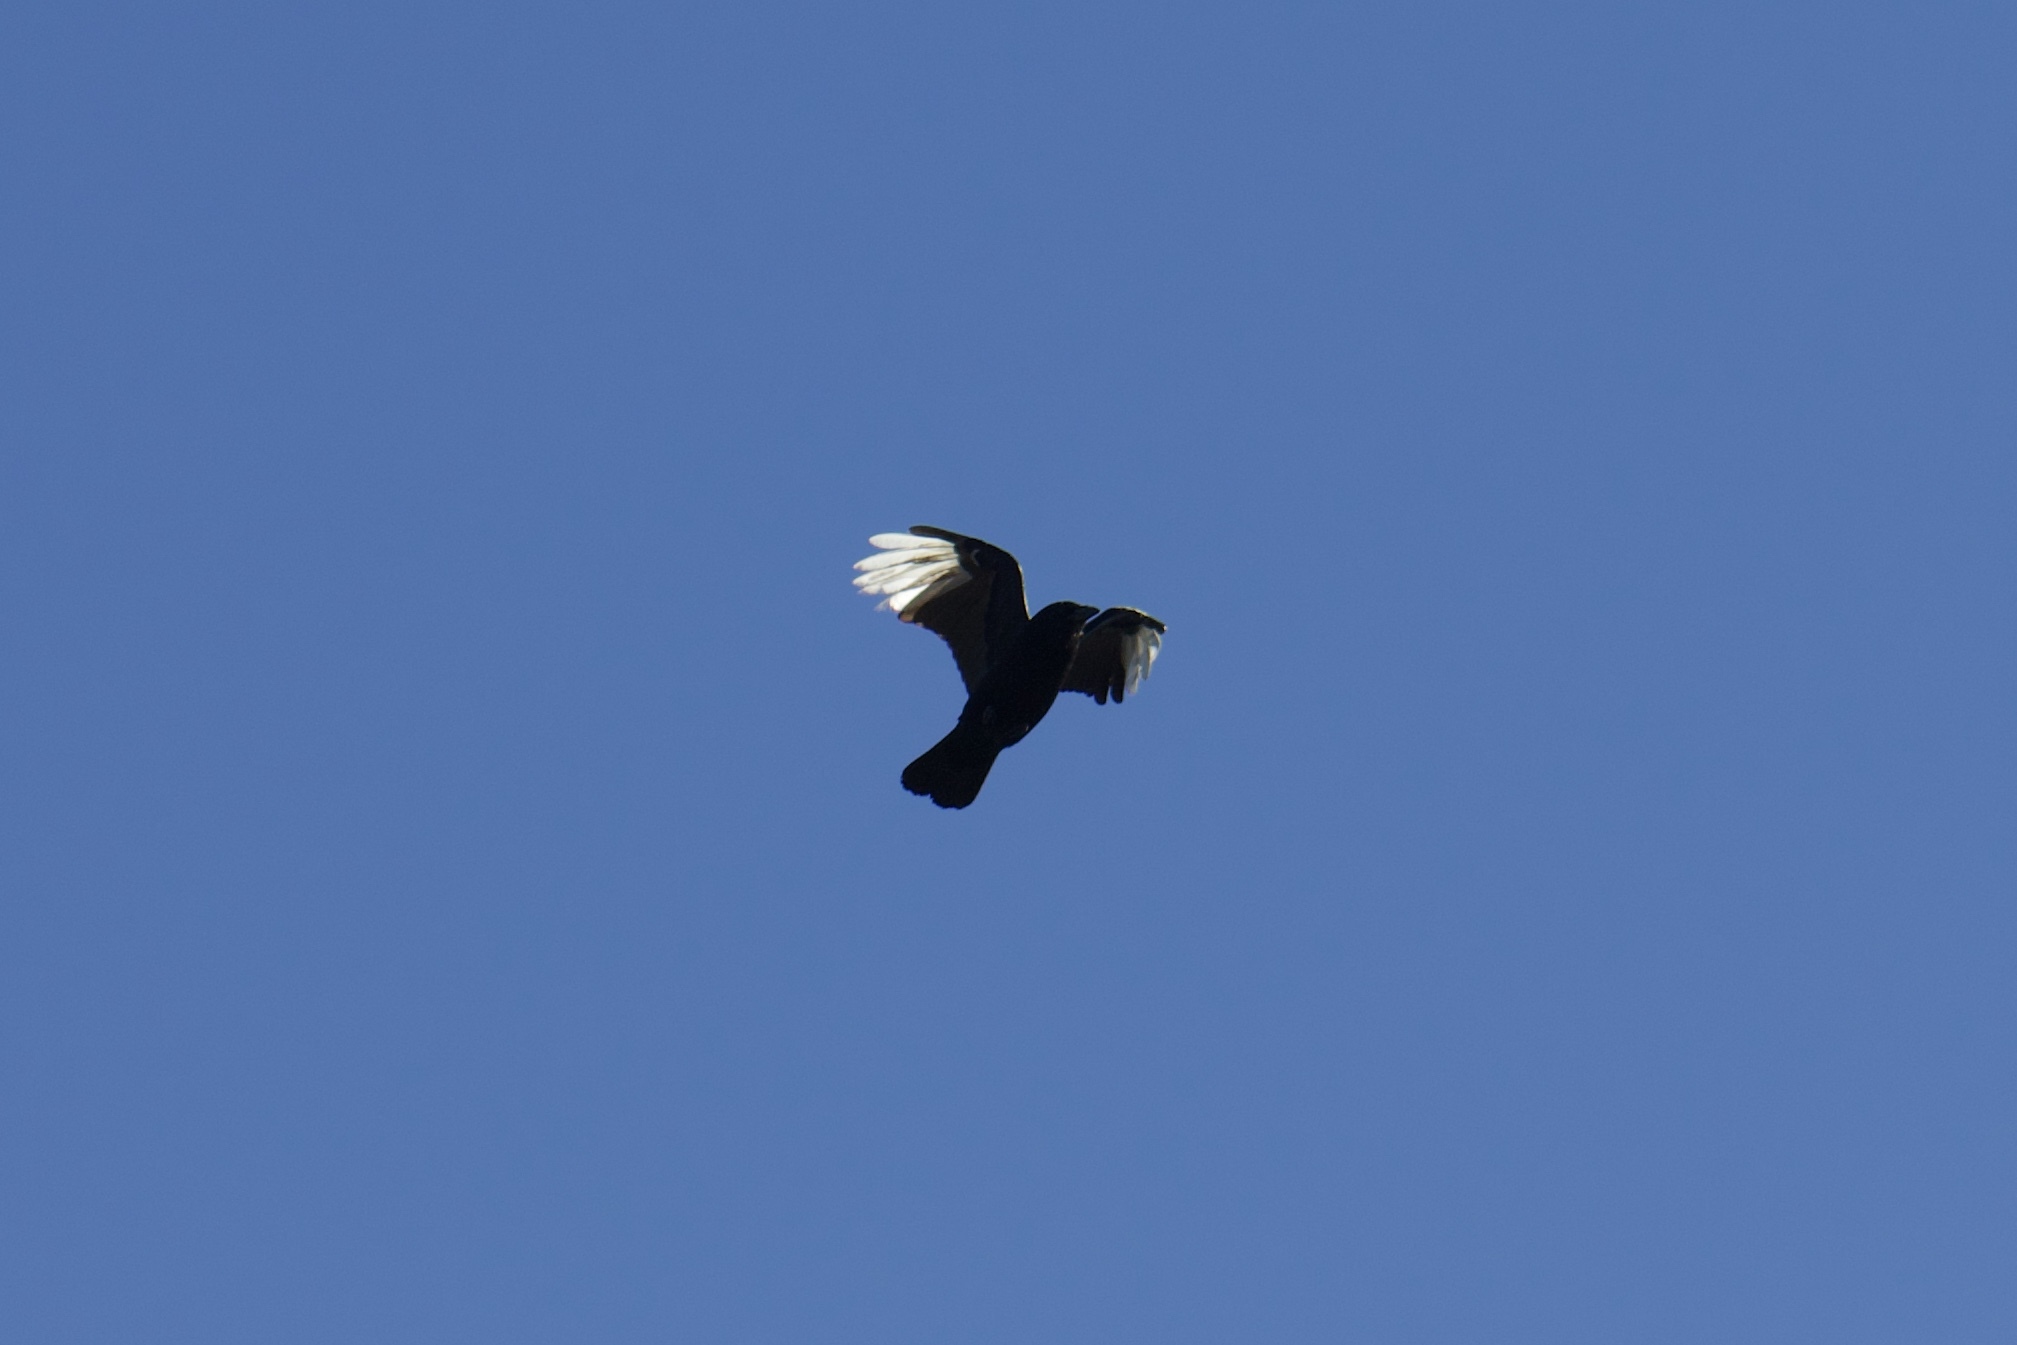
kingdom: Animalia
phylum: Chordata
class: Aves
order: Passeriformes
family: Corvidae
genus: Corvus
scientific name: Corvus brachyrhynchos
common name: American crow
